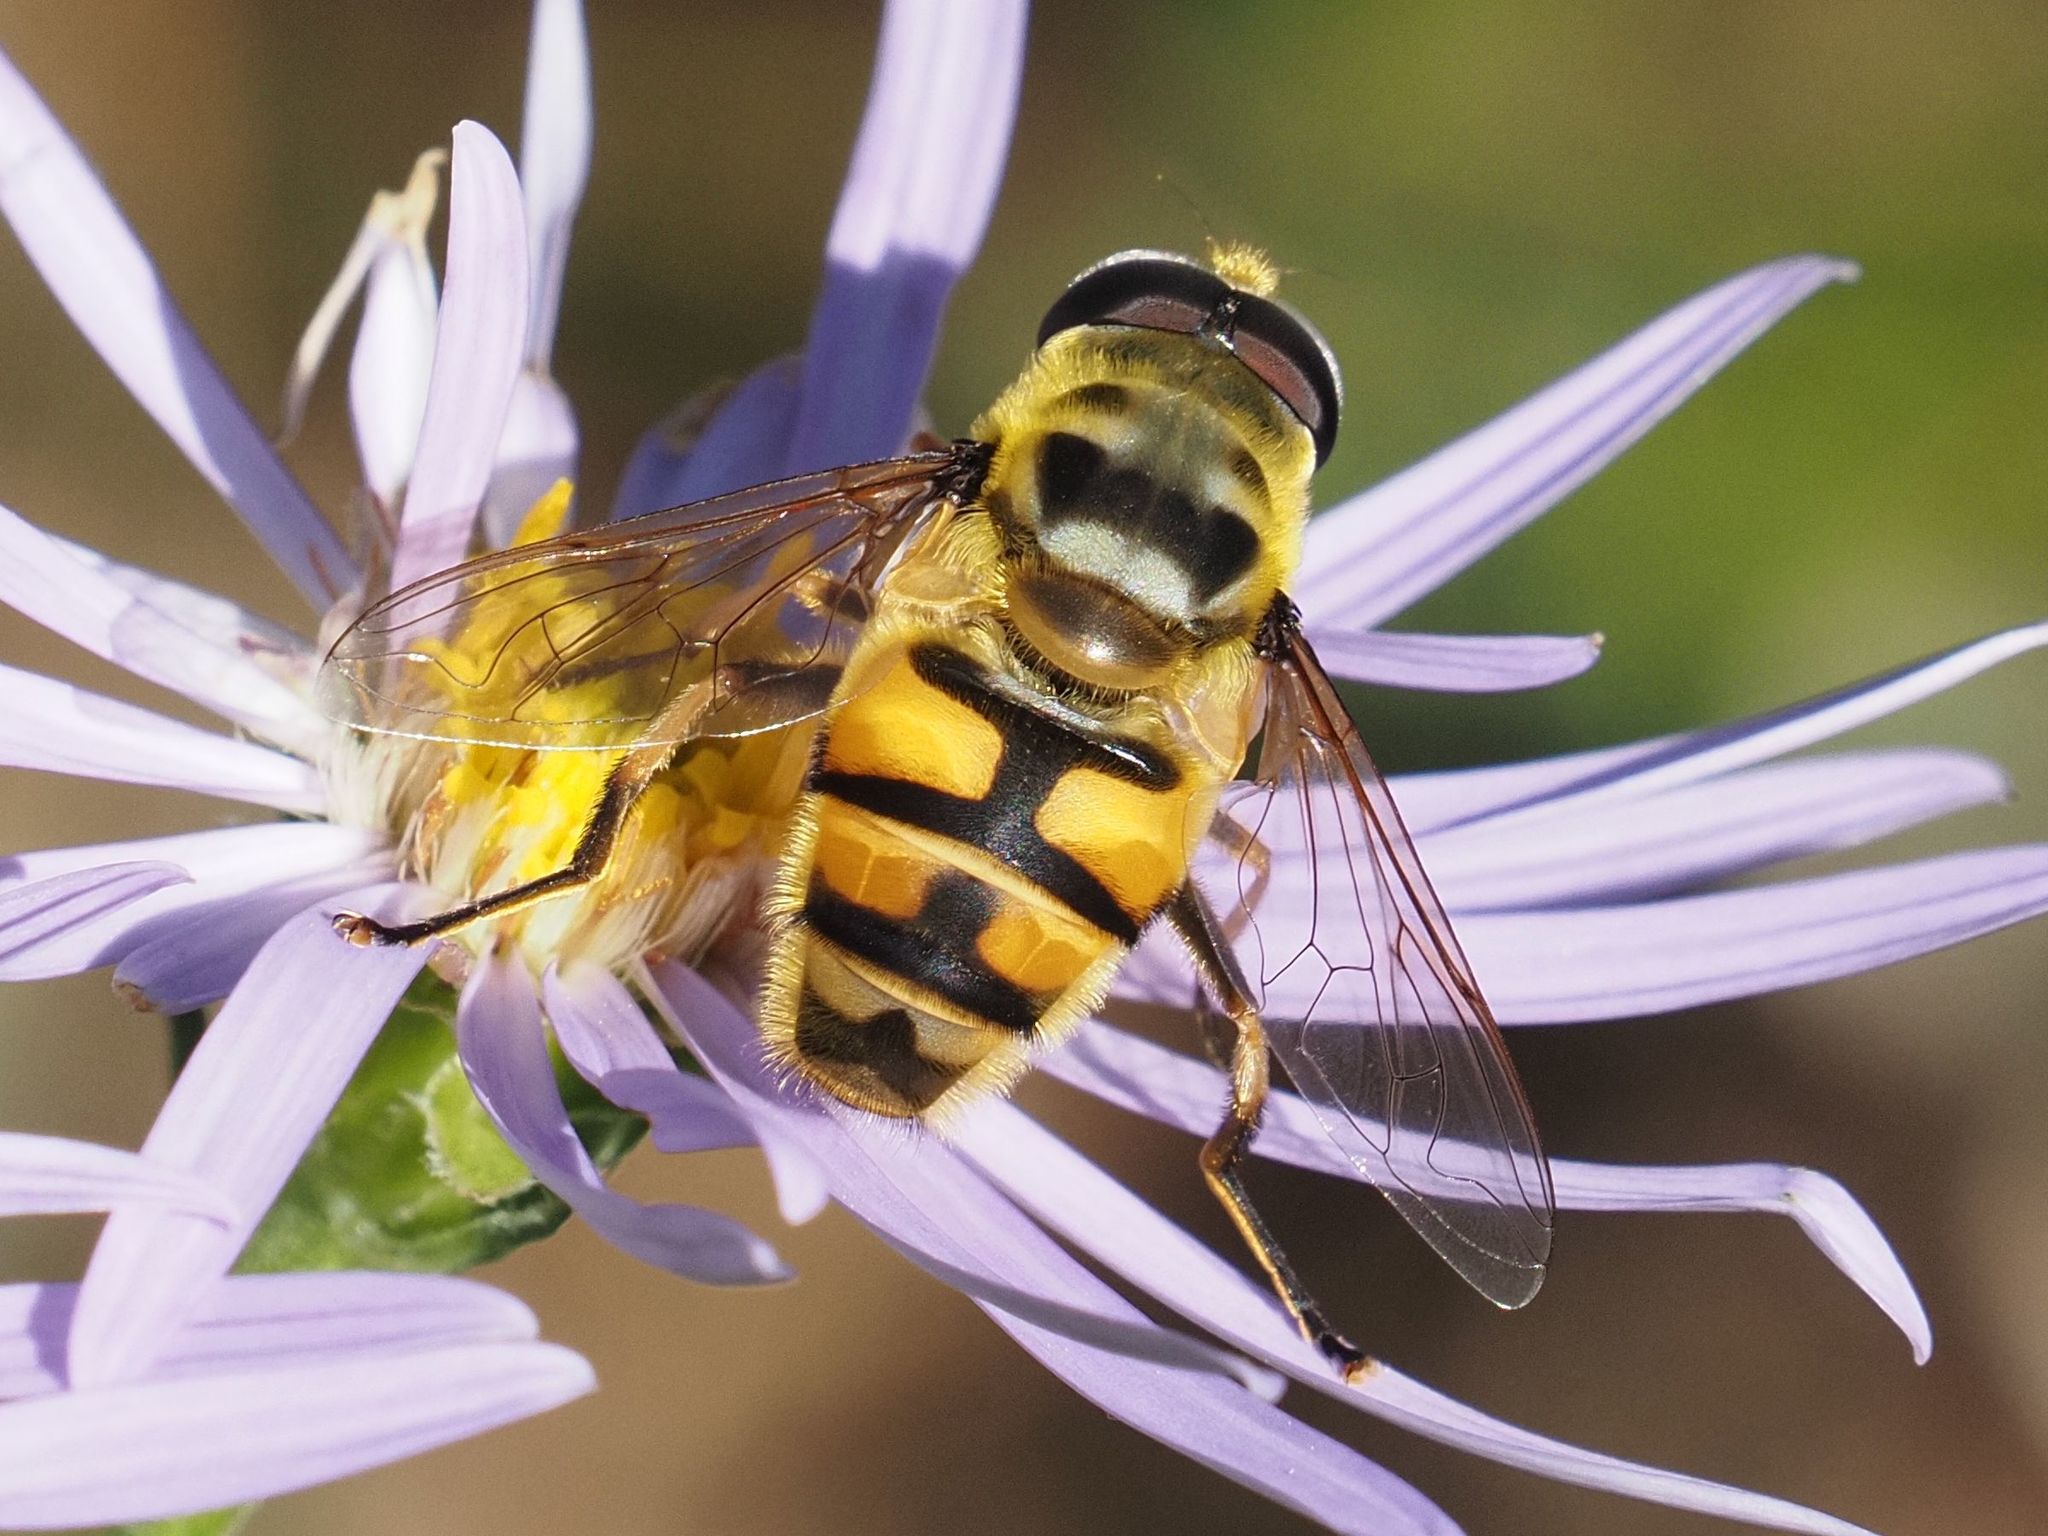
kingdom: Animalia
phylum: Arthropoda
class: Insecta
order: Diptera
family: Syrphidae
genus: Myathropa
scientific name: Myathropa florea
